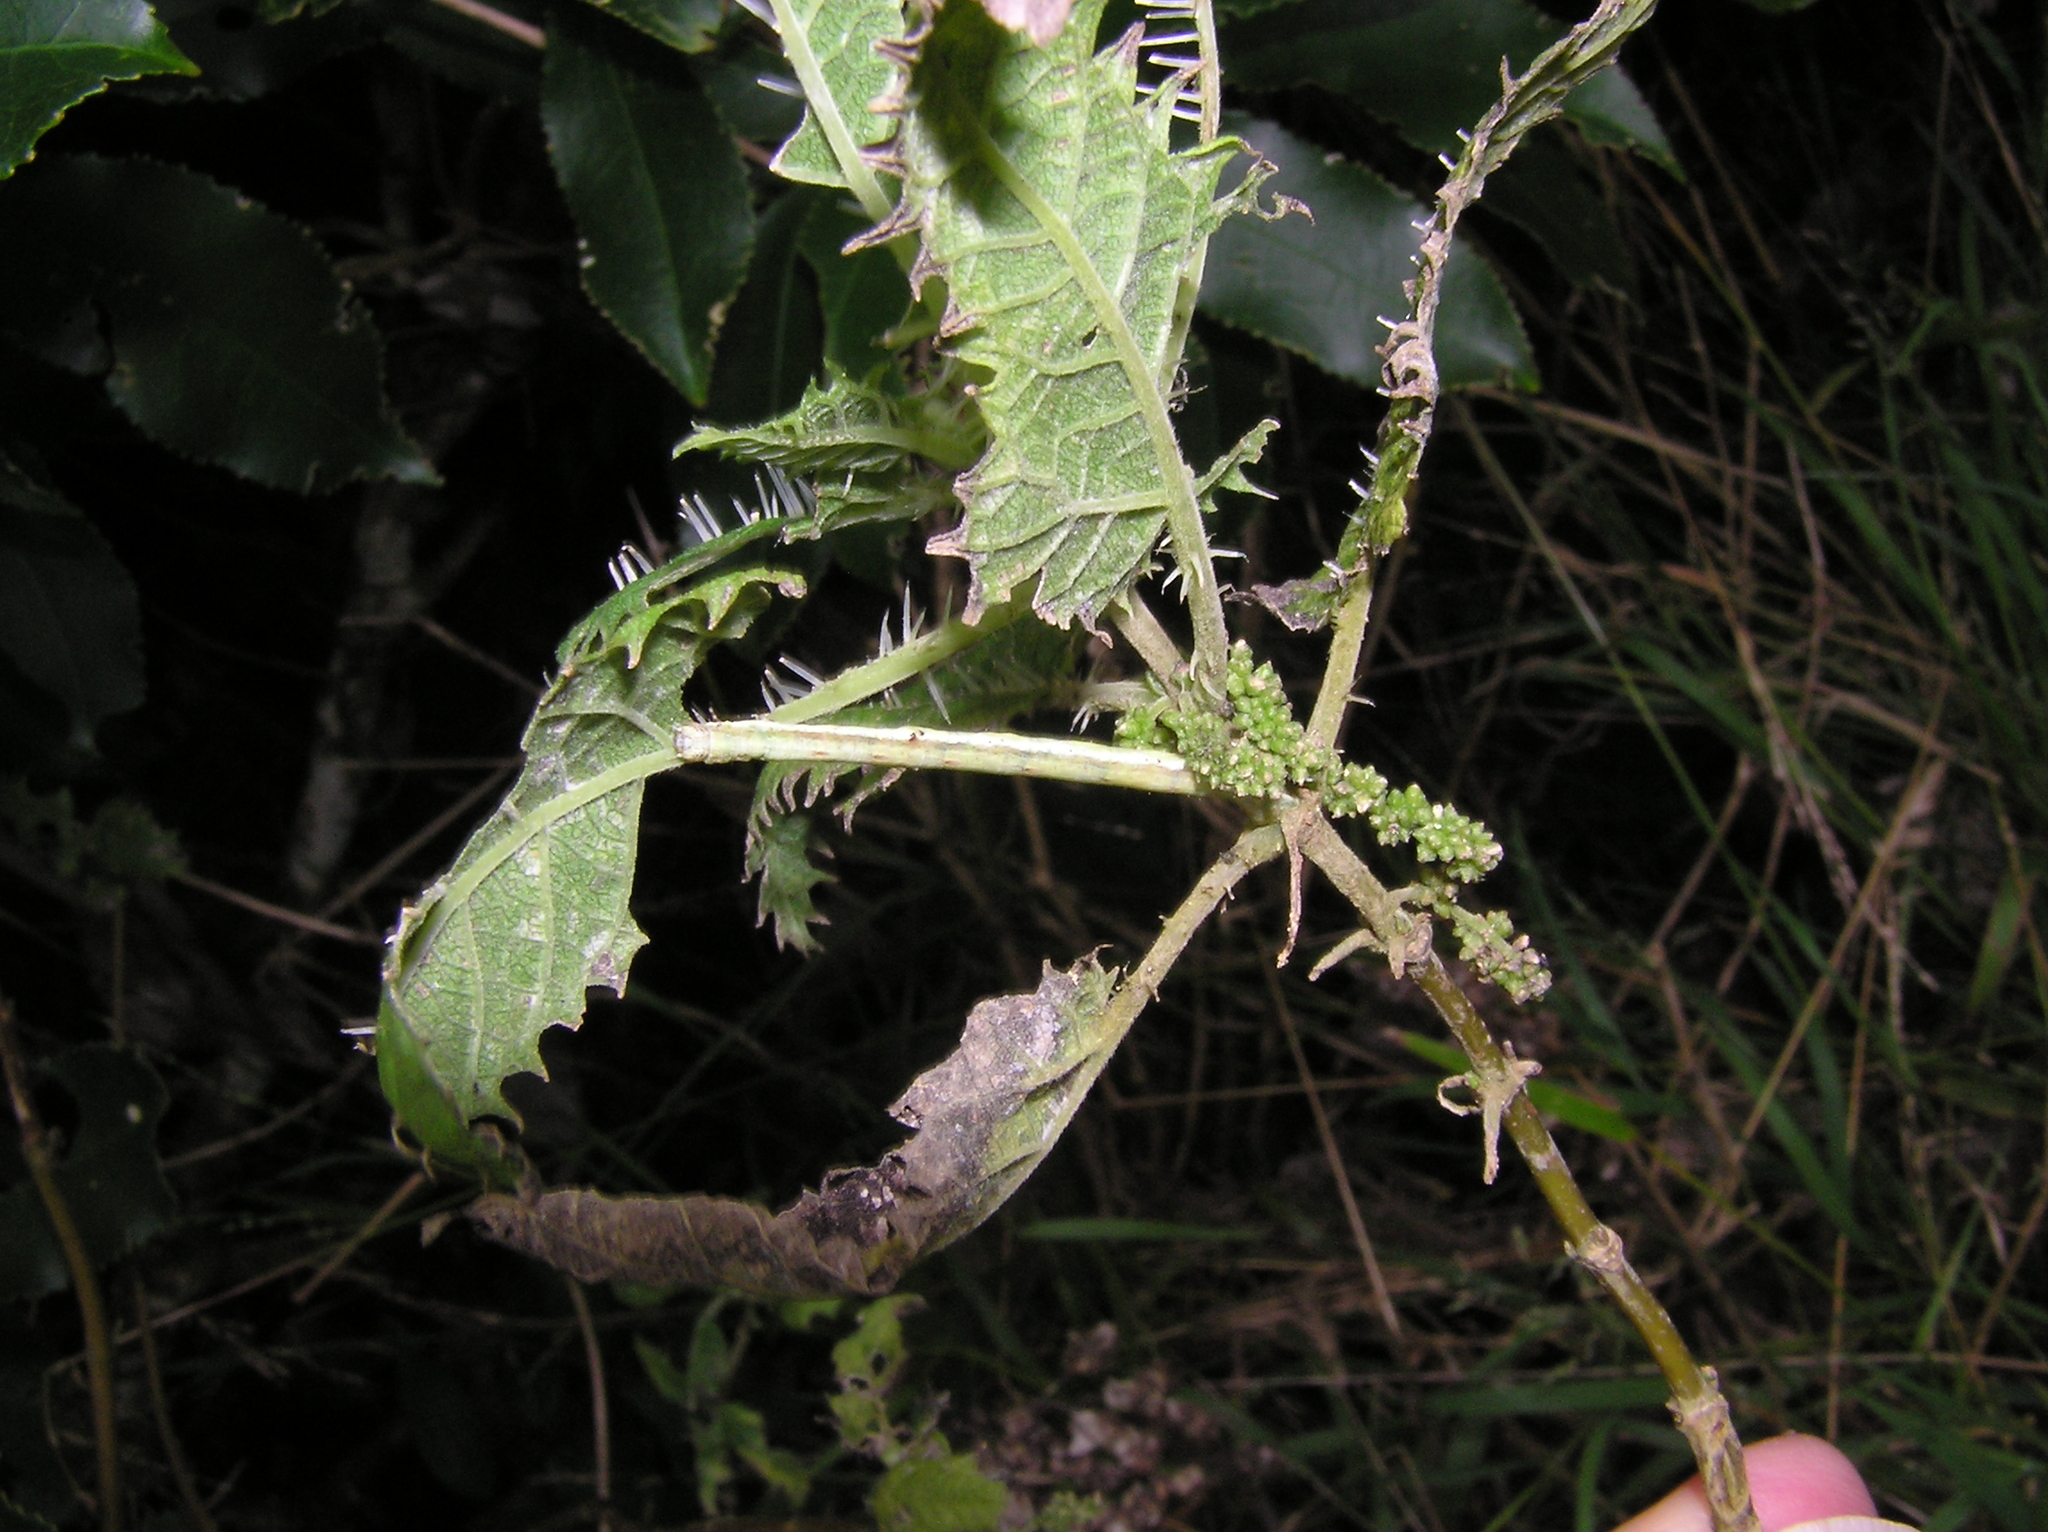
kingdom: Plantae
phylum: Tracheophyta
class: Magnoliopsida
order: Rosales
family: Urticaceae
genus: Urtica
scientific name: Urtica ferox
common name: Tree nettle
